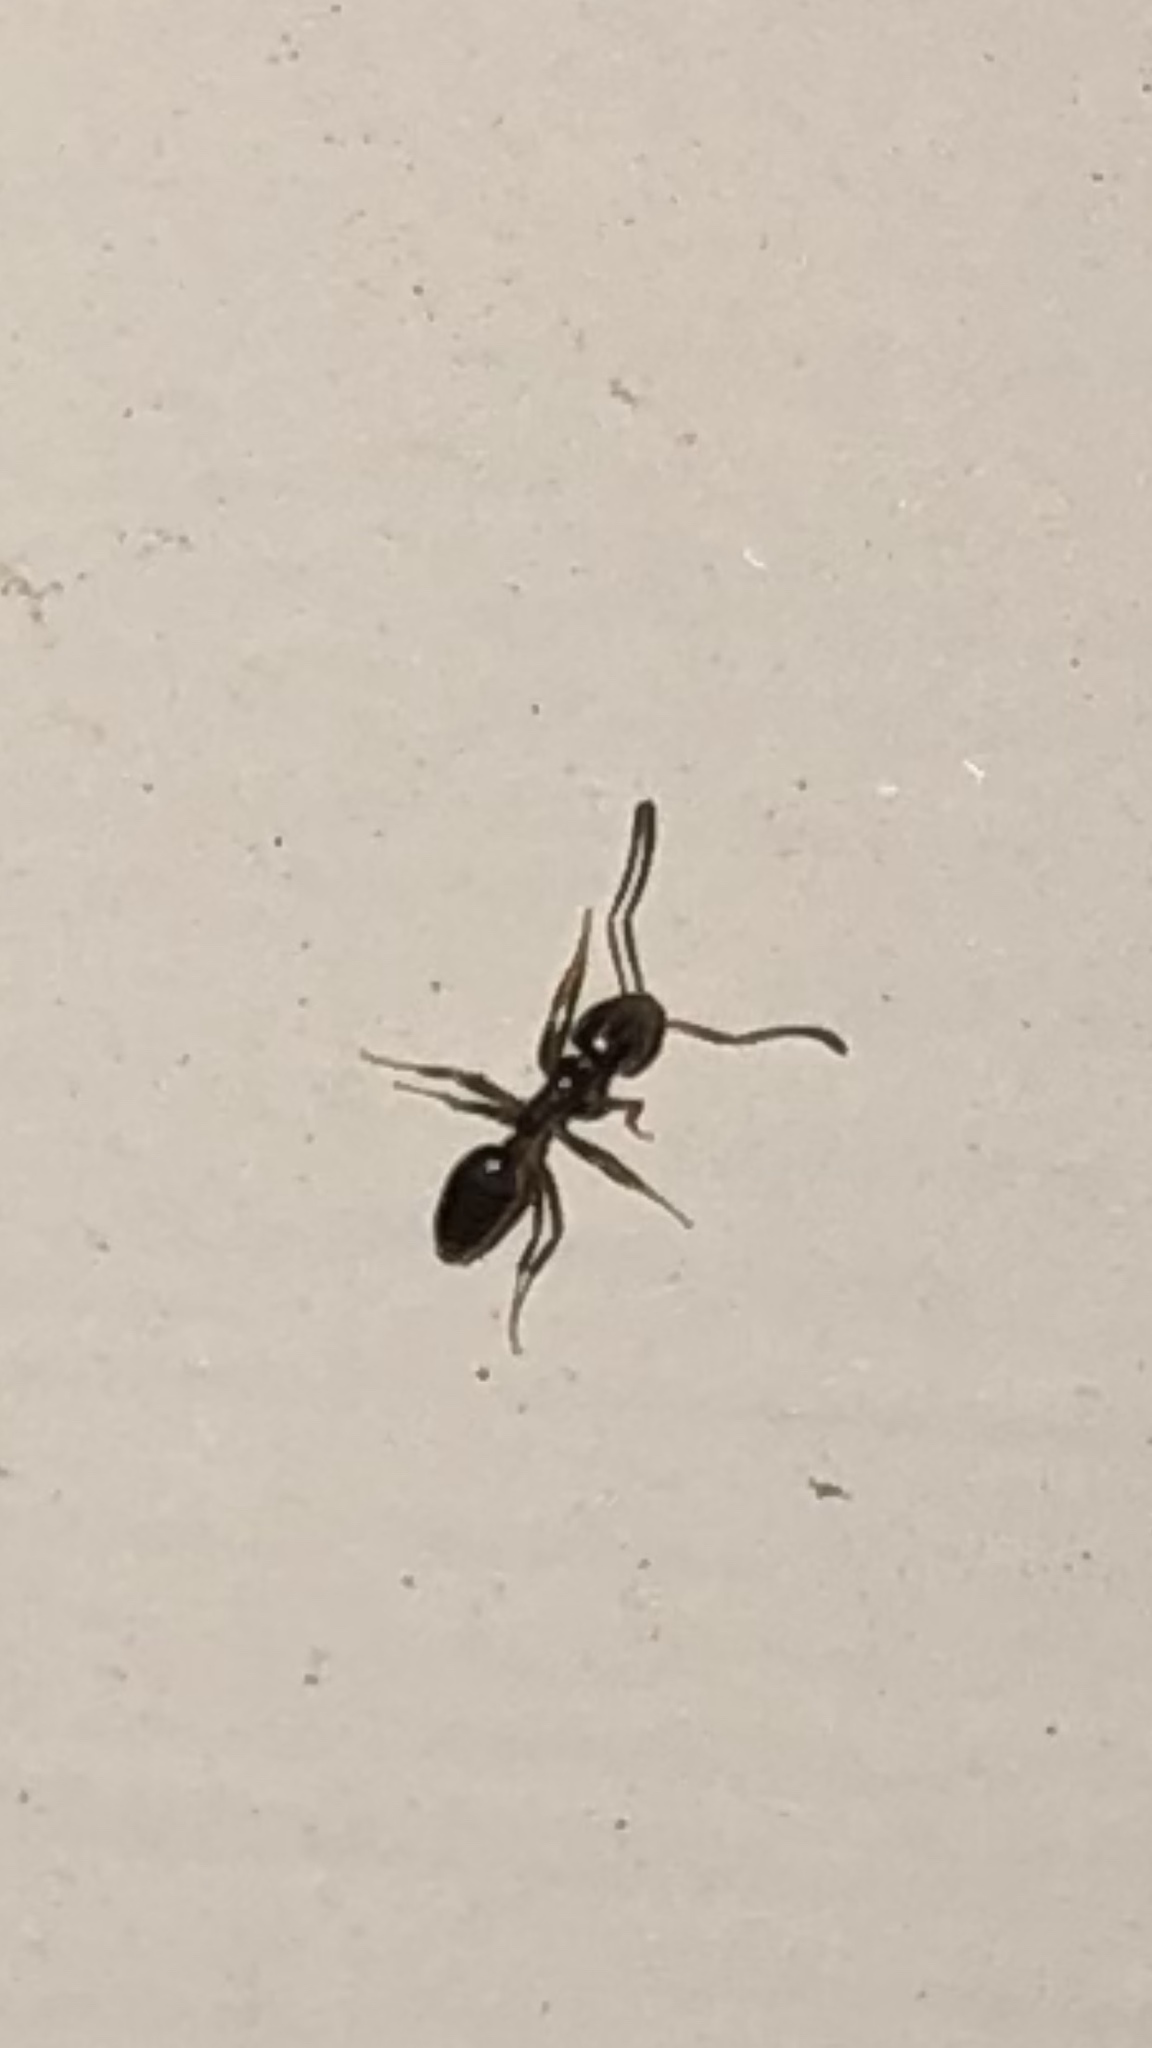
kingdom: Animalia
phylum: Arthropoda
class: Insecta
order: Hymenoptera
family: Formicidae
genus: Tapinoma
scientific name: Tapinoma sessile
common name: Odorous house ant
